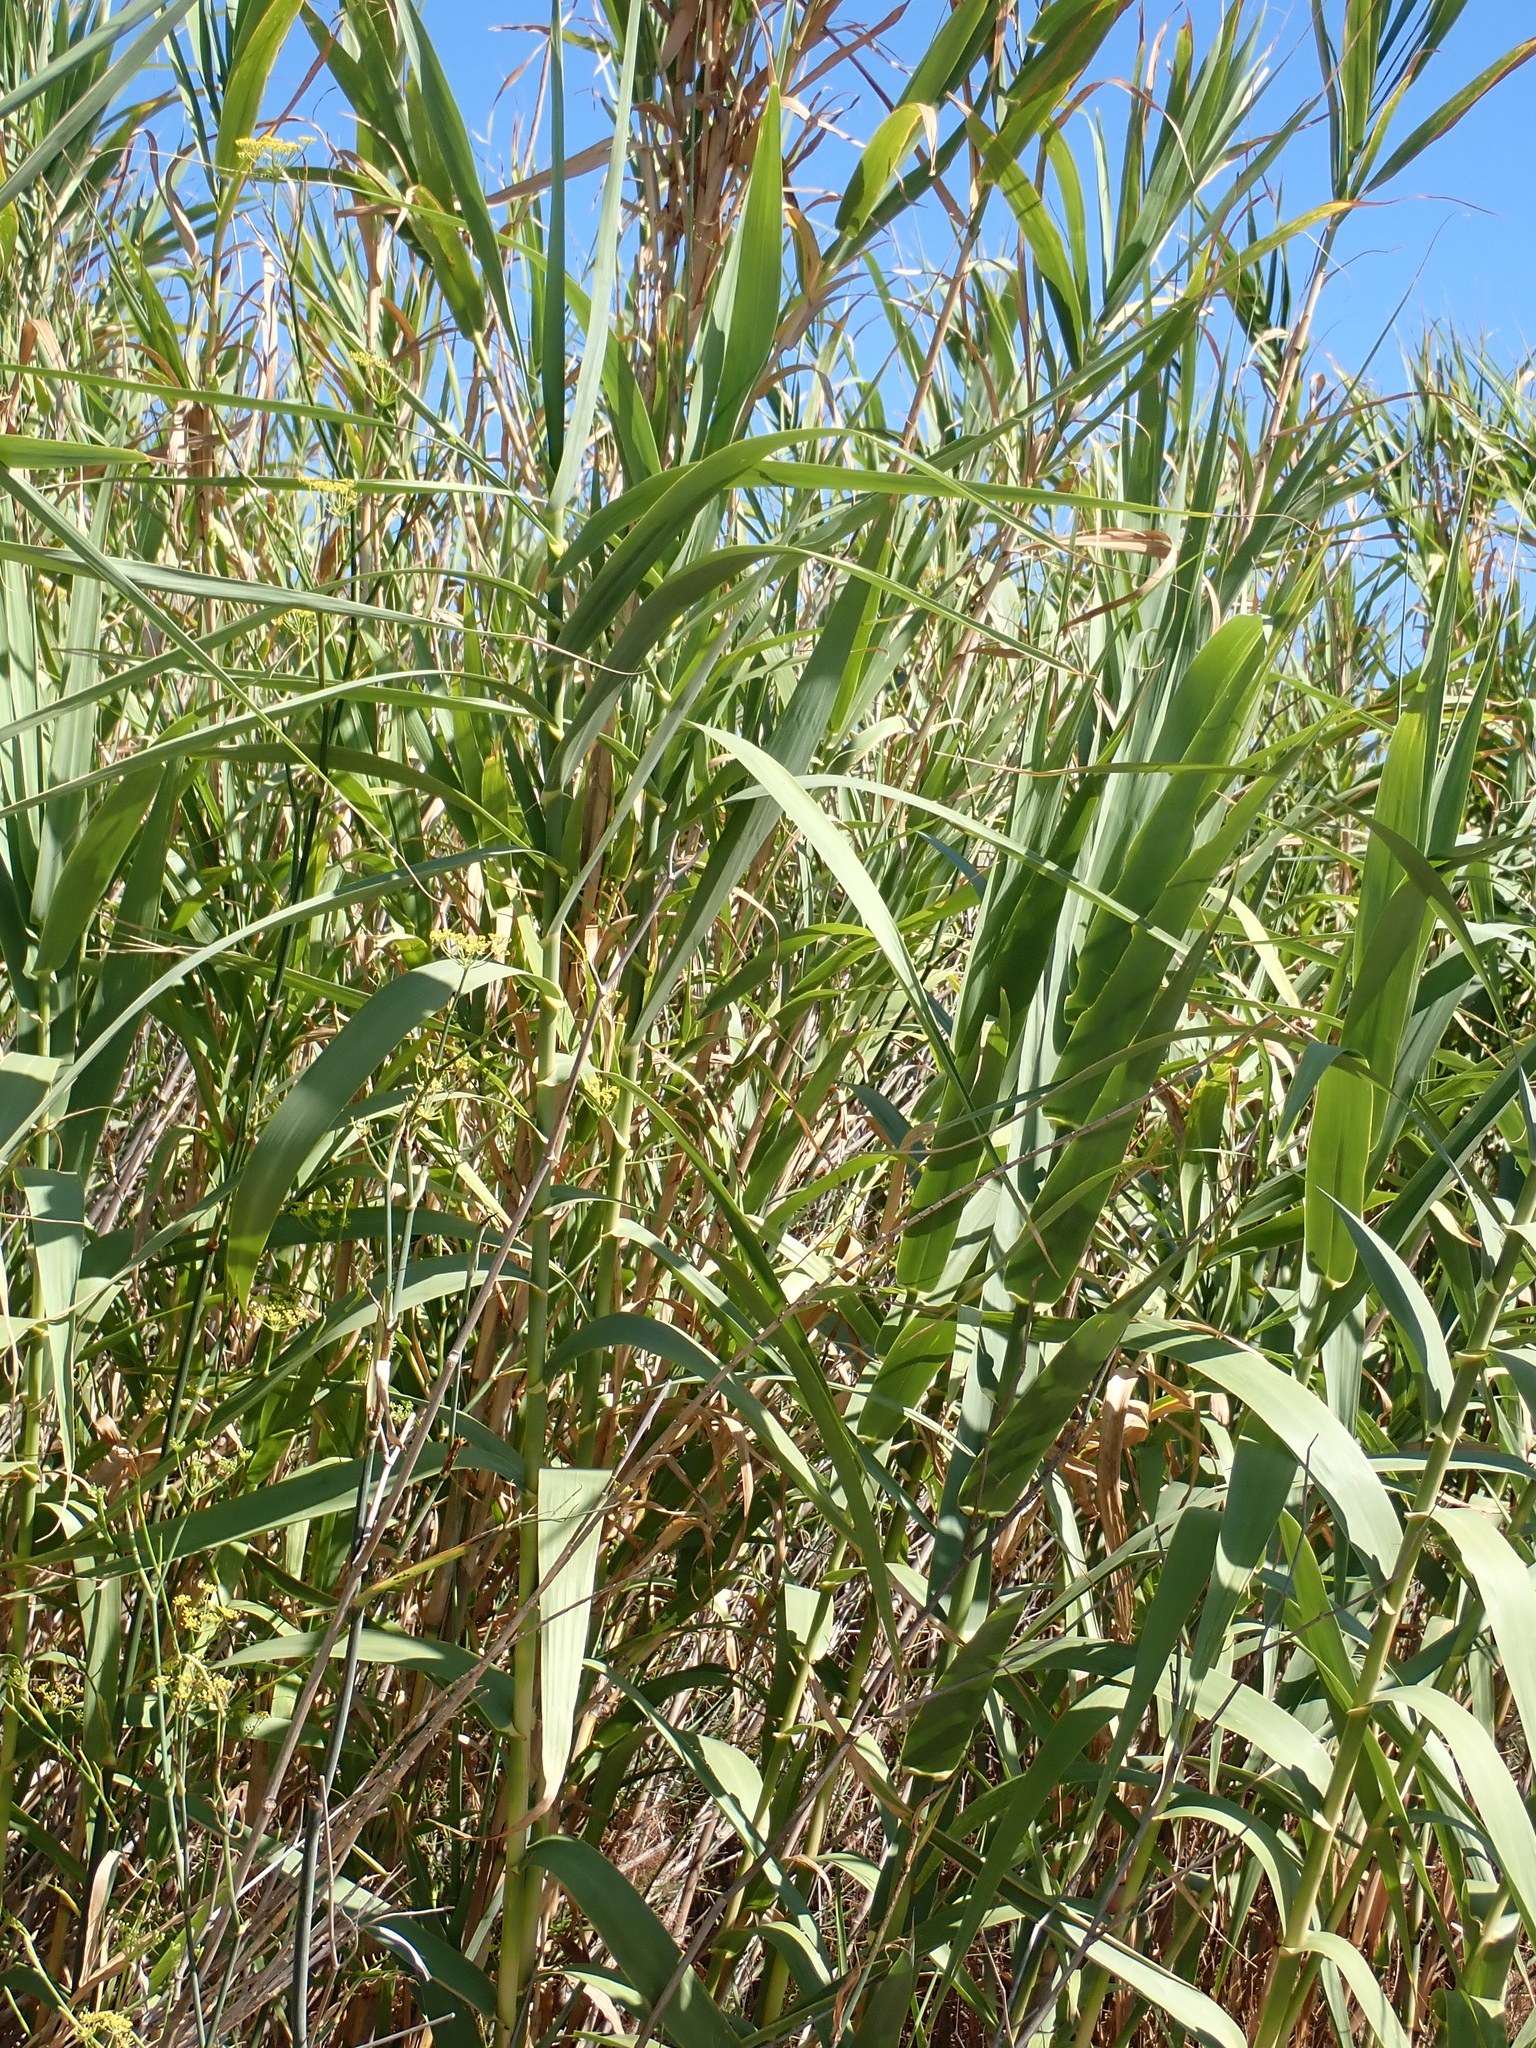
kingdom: Plantae
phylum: Tracheophyta
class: Liliopsida
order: Poales
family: Poaceae
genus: Arundo
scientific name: Arundo donax
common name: Giant reed
